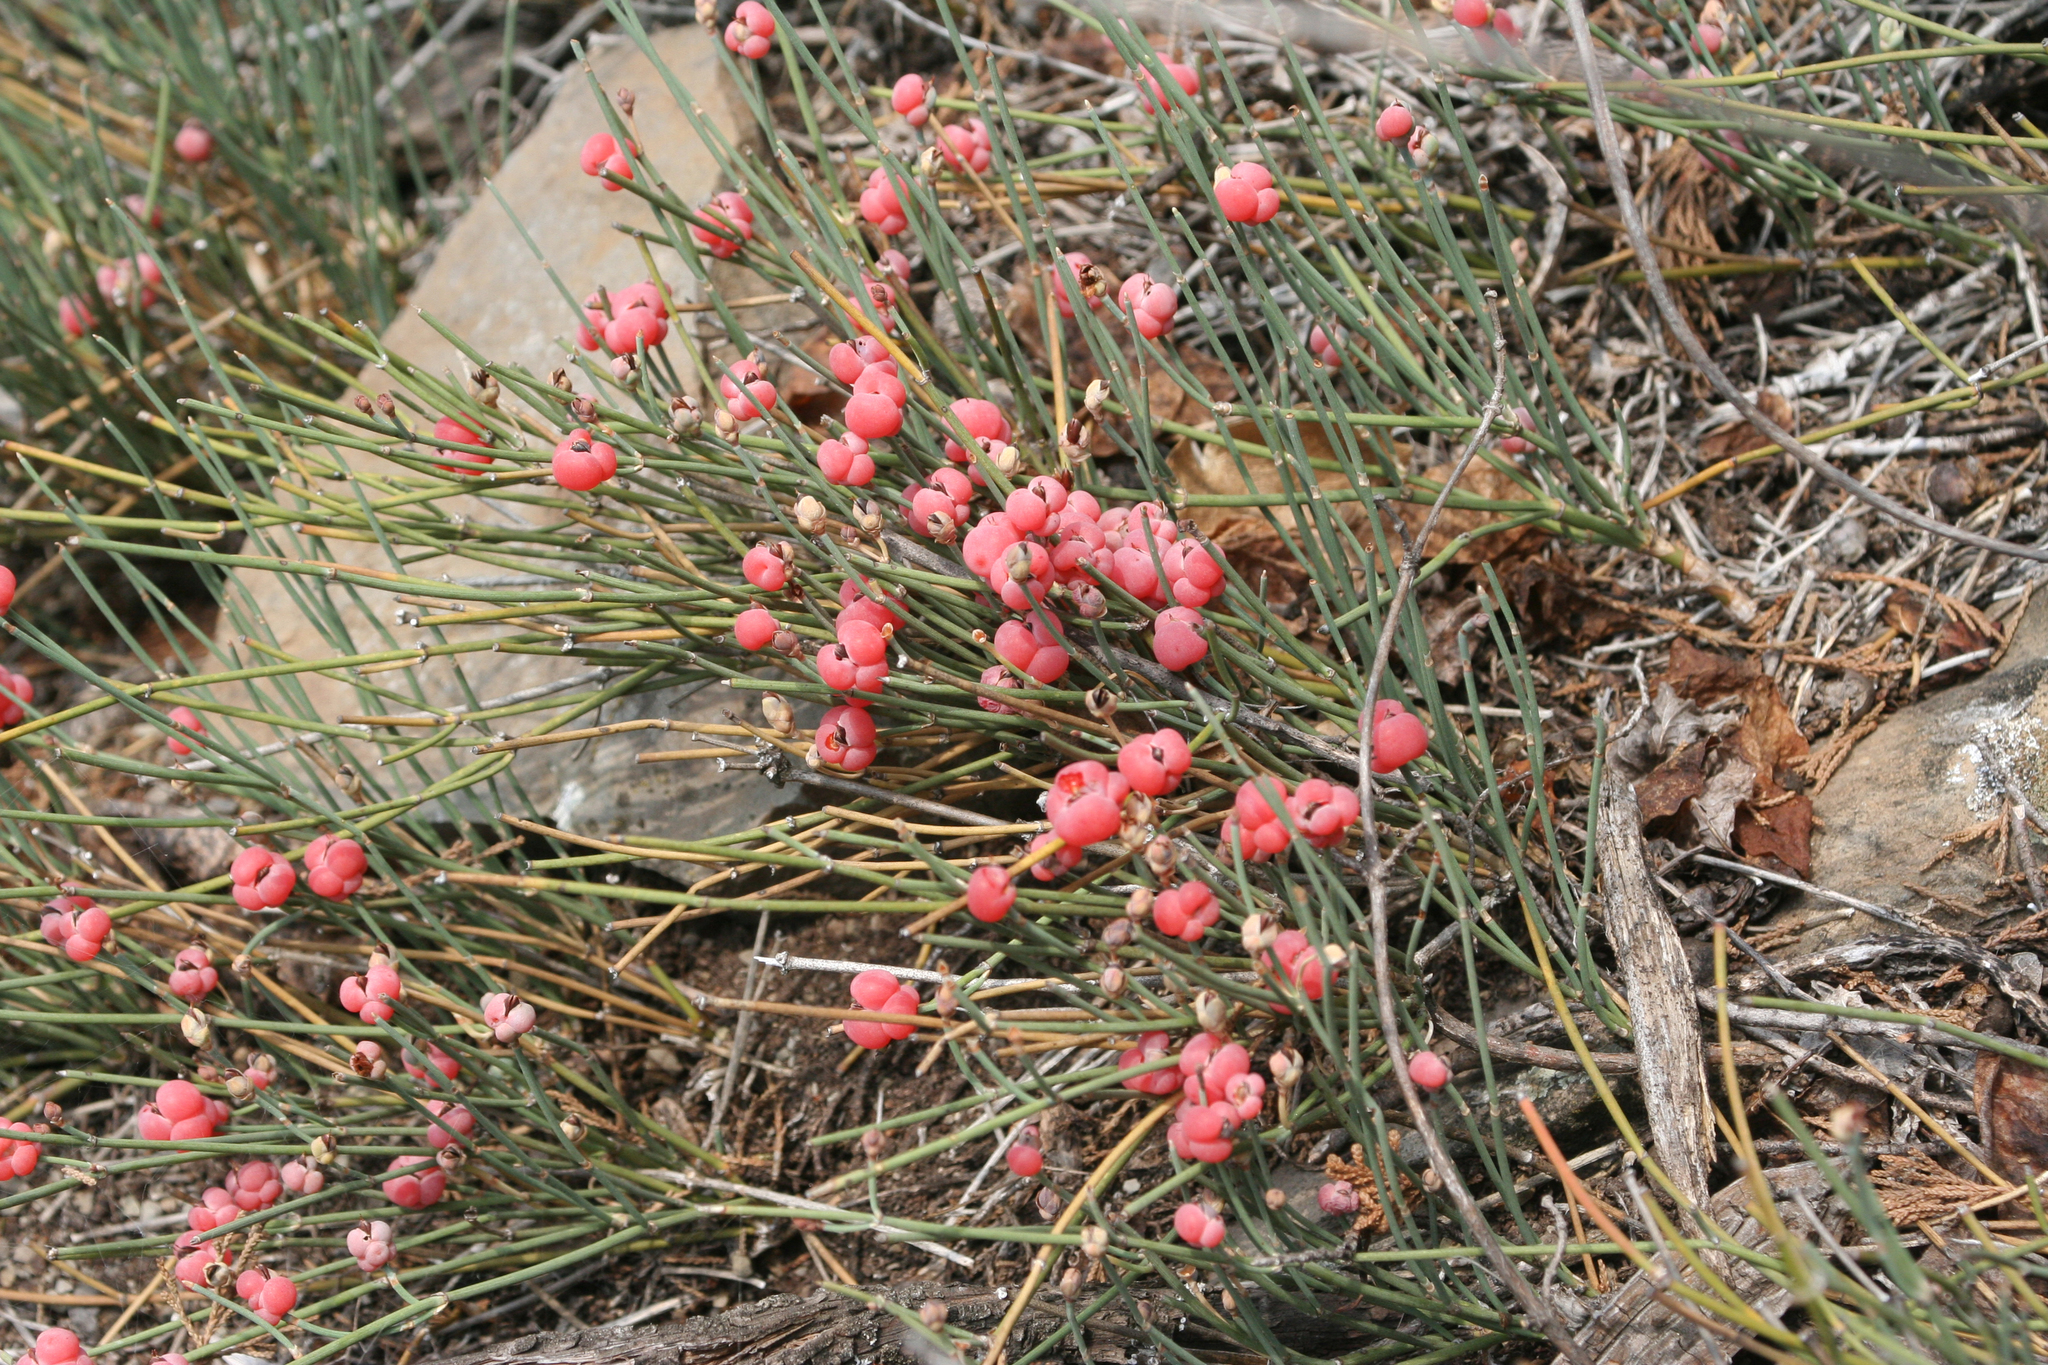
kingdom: Plantae
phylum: Tracheophyta
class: Gnetopsida
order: Ephedrales
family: Ephedraceae
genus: Ephedra
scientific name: Ephedra distachya
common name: Sea grape
